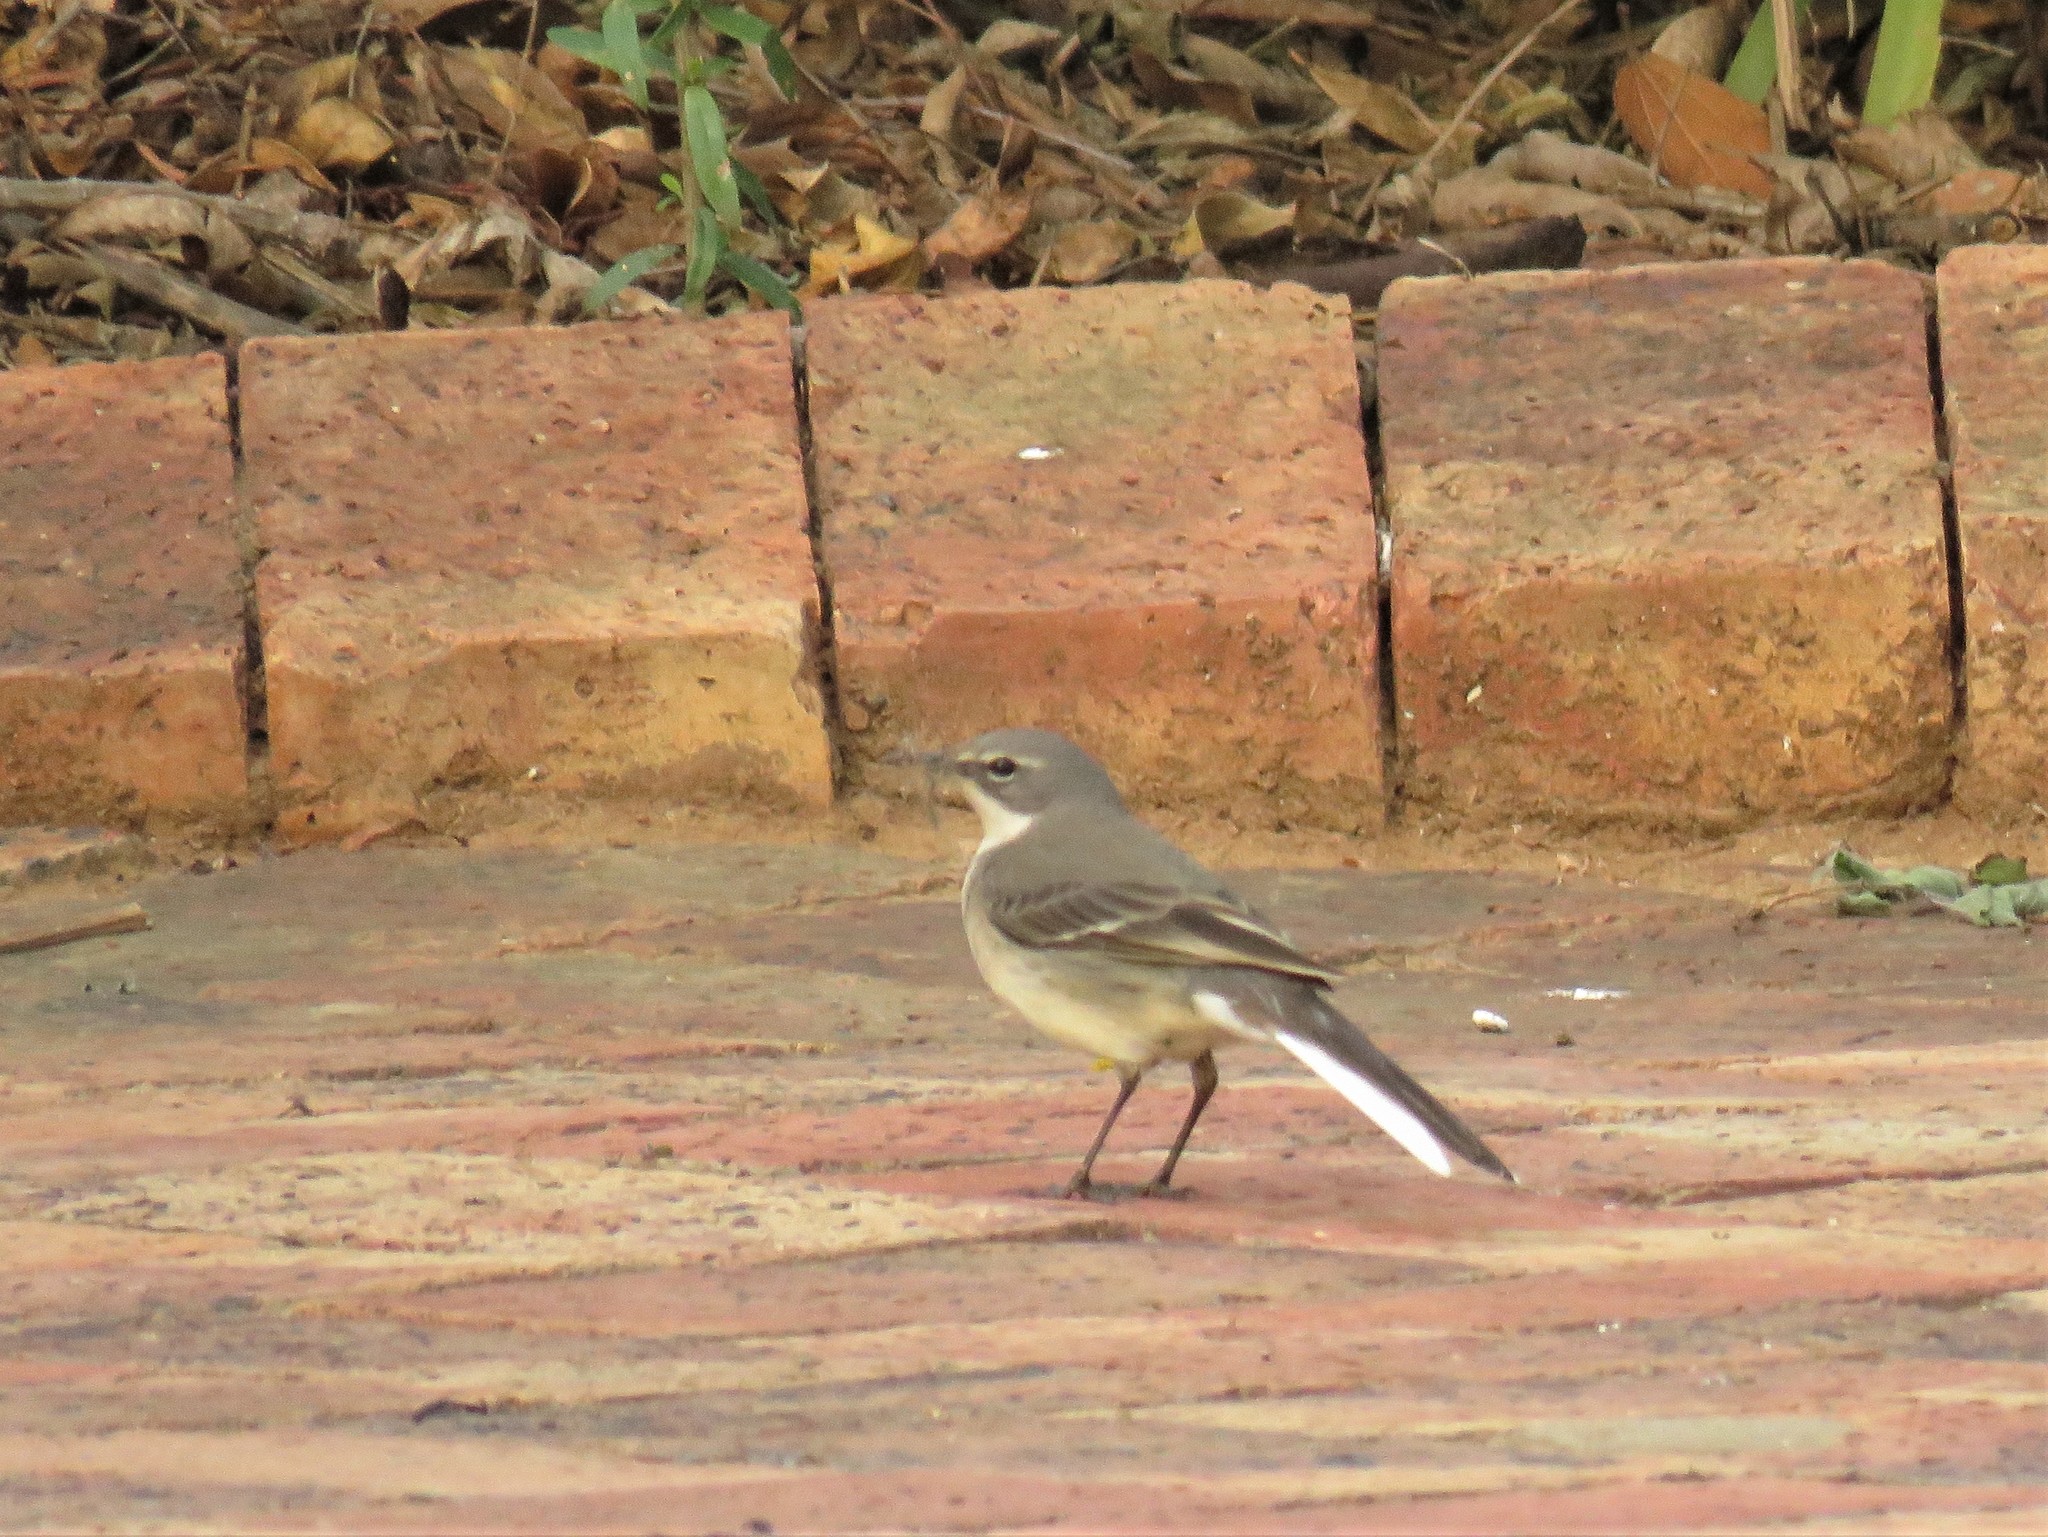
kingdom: Animalia
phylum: Chordata
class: Aves
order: Passeriformes
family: Motacillidae
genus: Motacilla
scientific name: Motacilla capensis
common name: Cape wagtail
